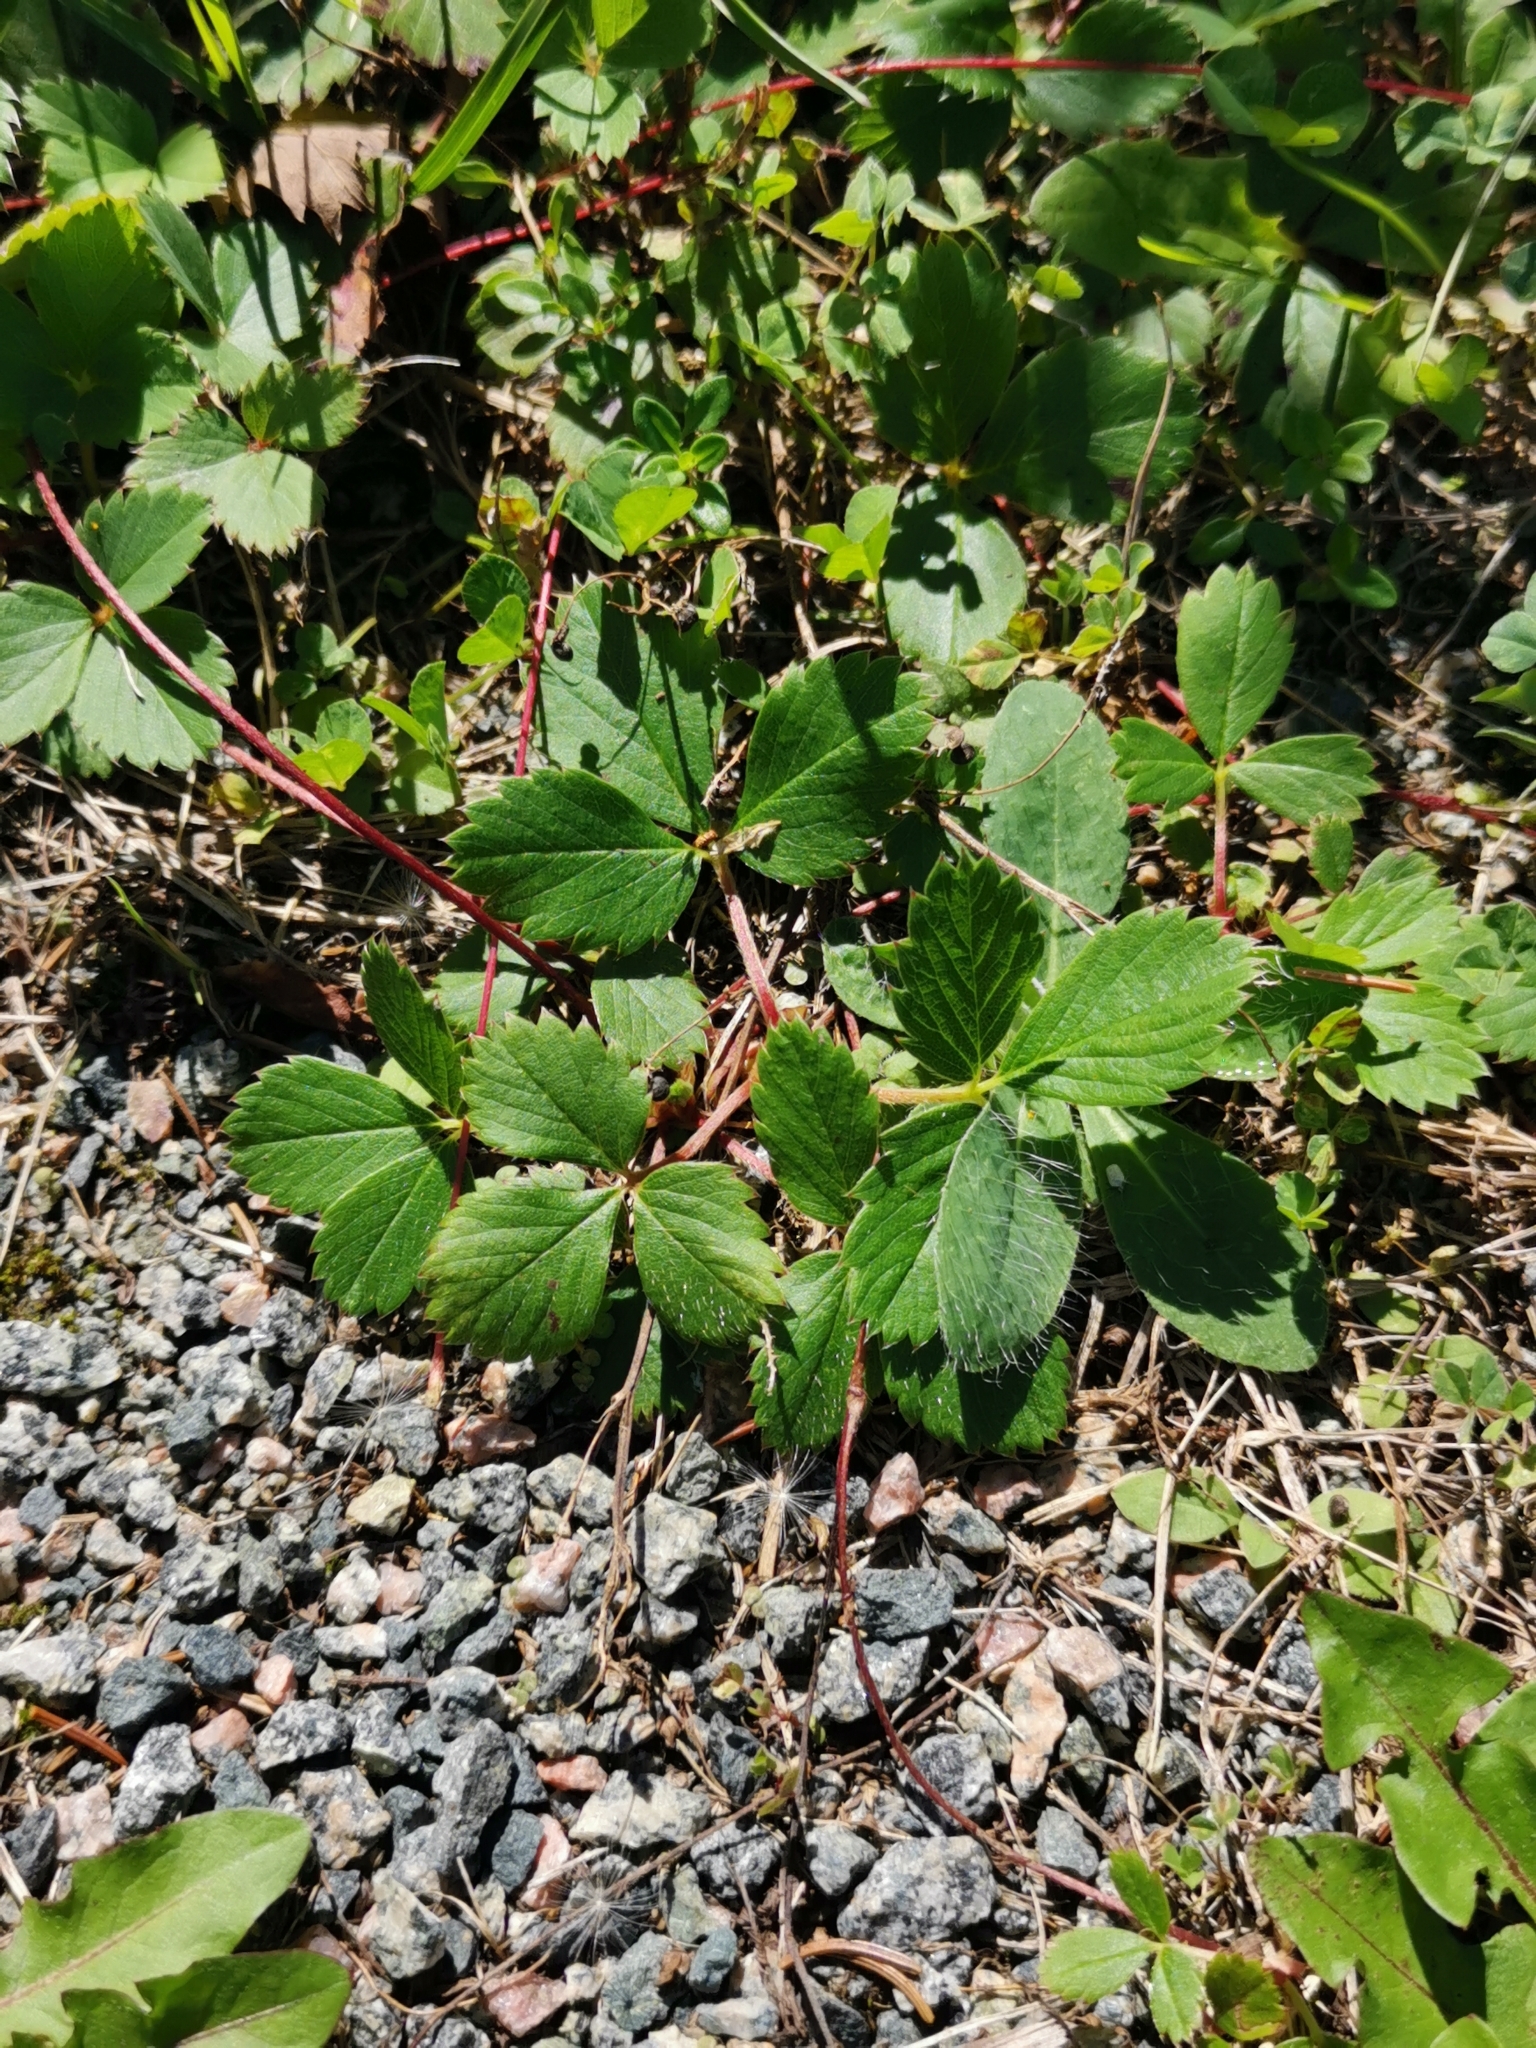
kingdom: Plantae
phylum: Tracheophyta
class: Magnoliopsida
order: Rosales
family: Rosaceae
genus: Fragaria
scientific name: Fragaria virginiana
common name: Thickleaved wild strawberry
